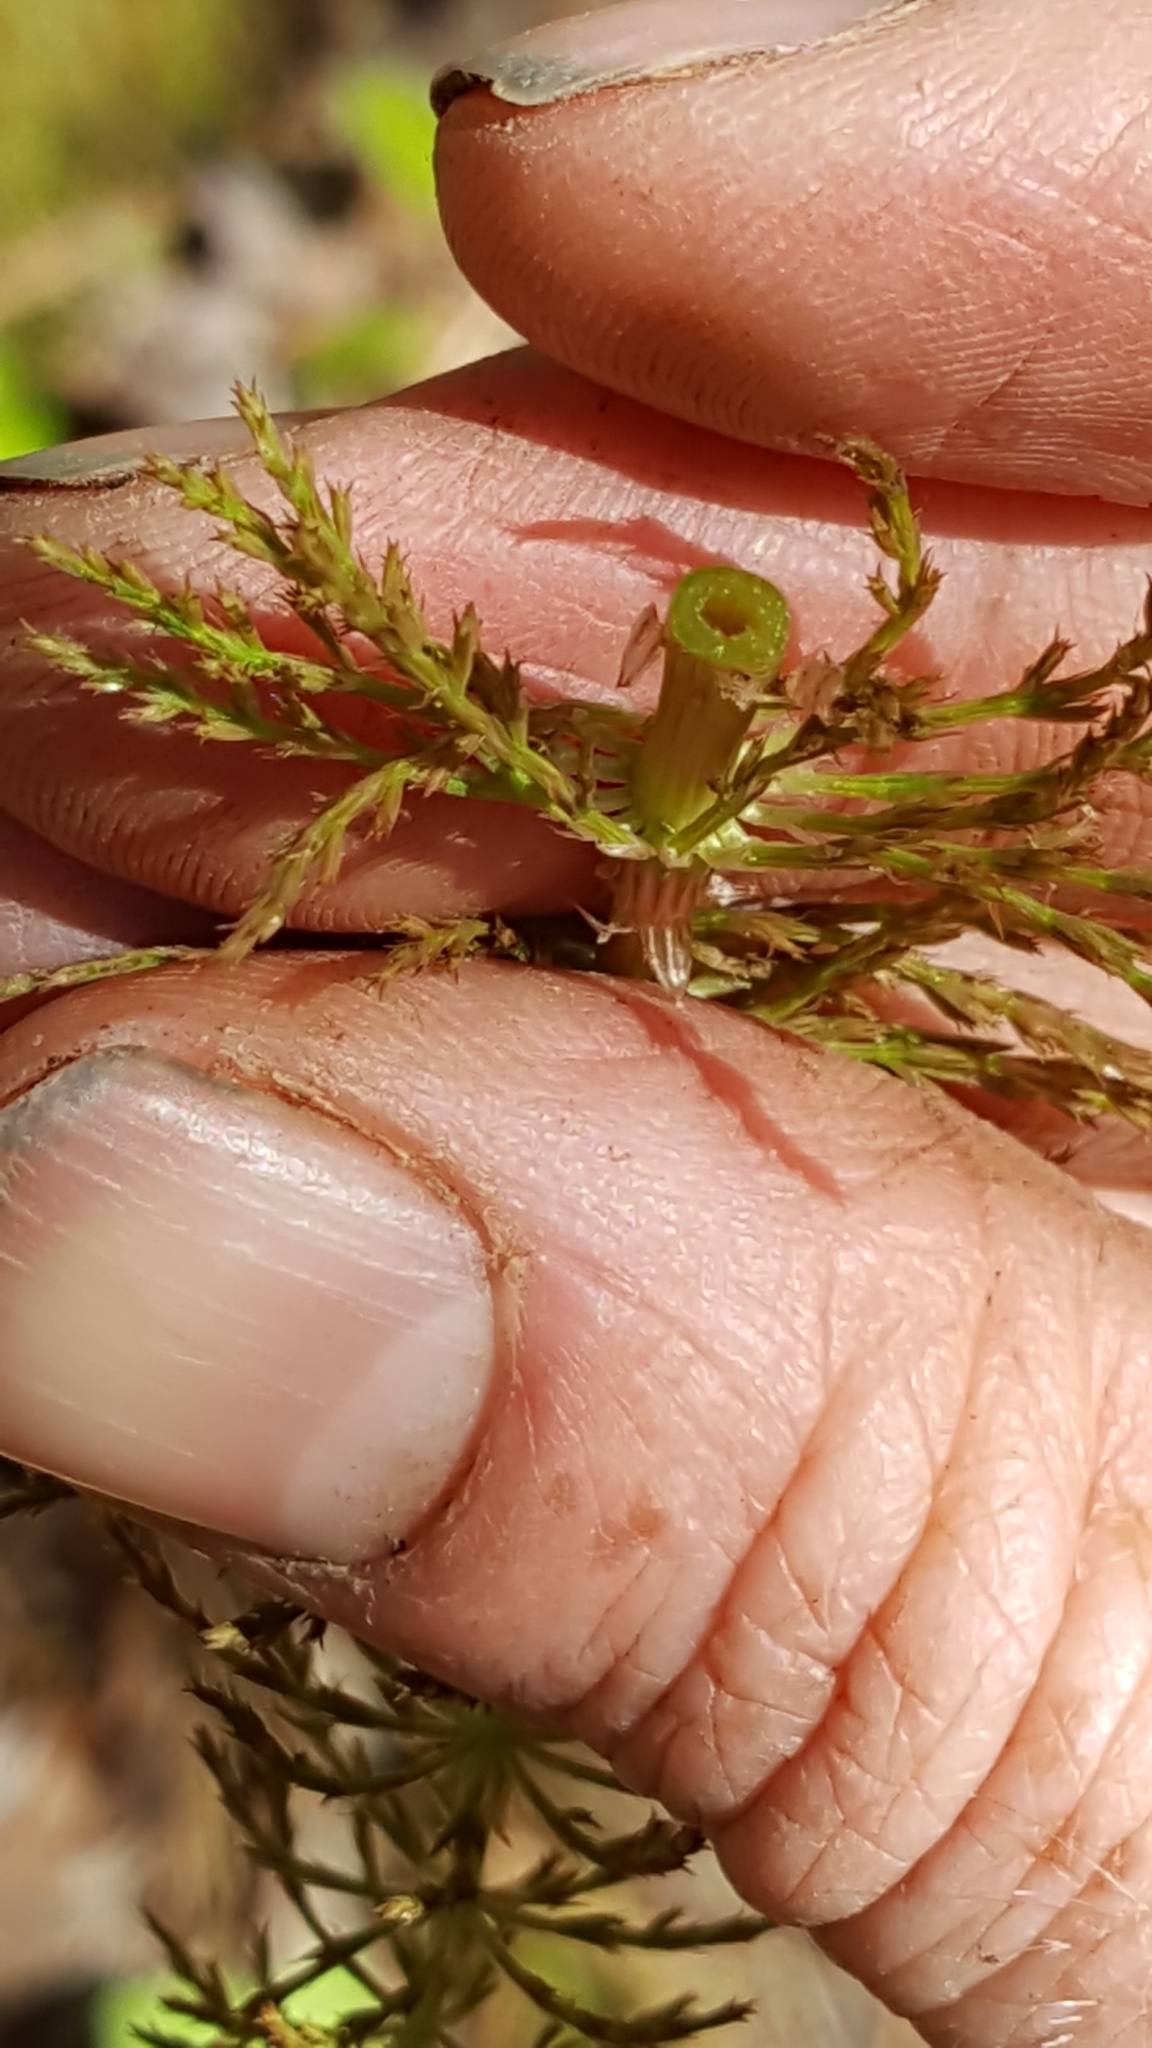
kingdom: Plantae
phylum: Tracheophyta
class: Polypodiopsida
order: Equisetales
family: Equisetaceae
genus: Equisetum
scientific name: Equisetum sylvaticum
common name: Wood horsetail
